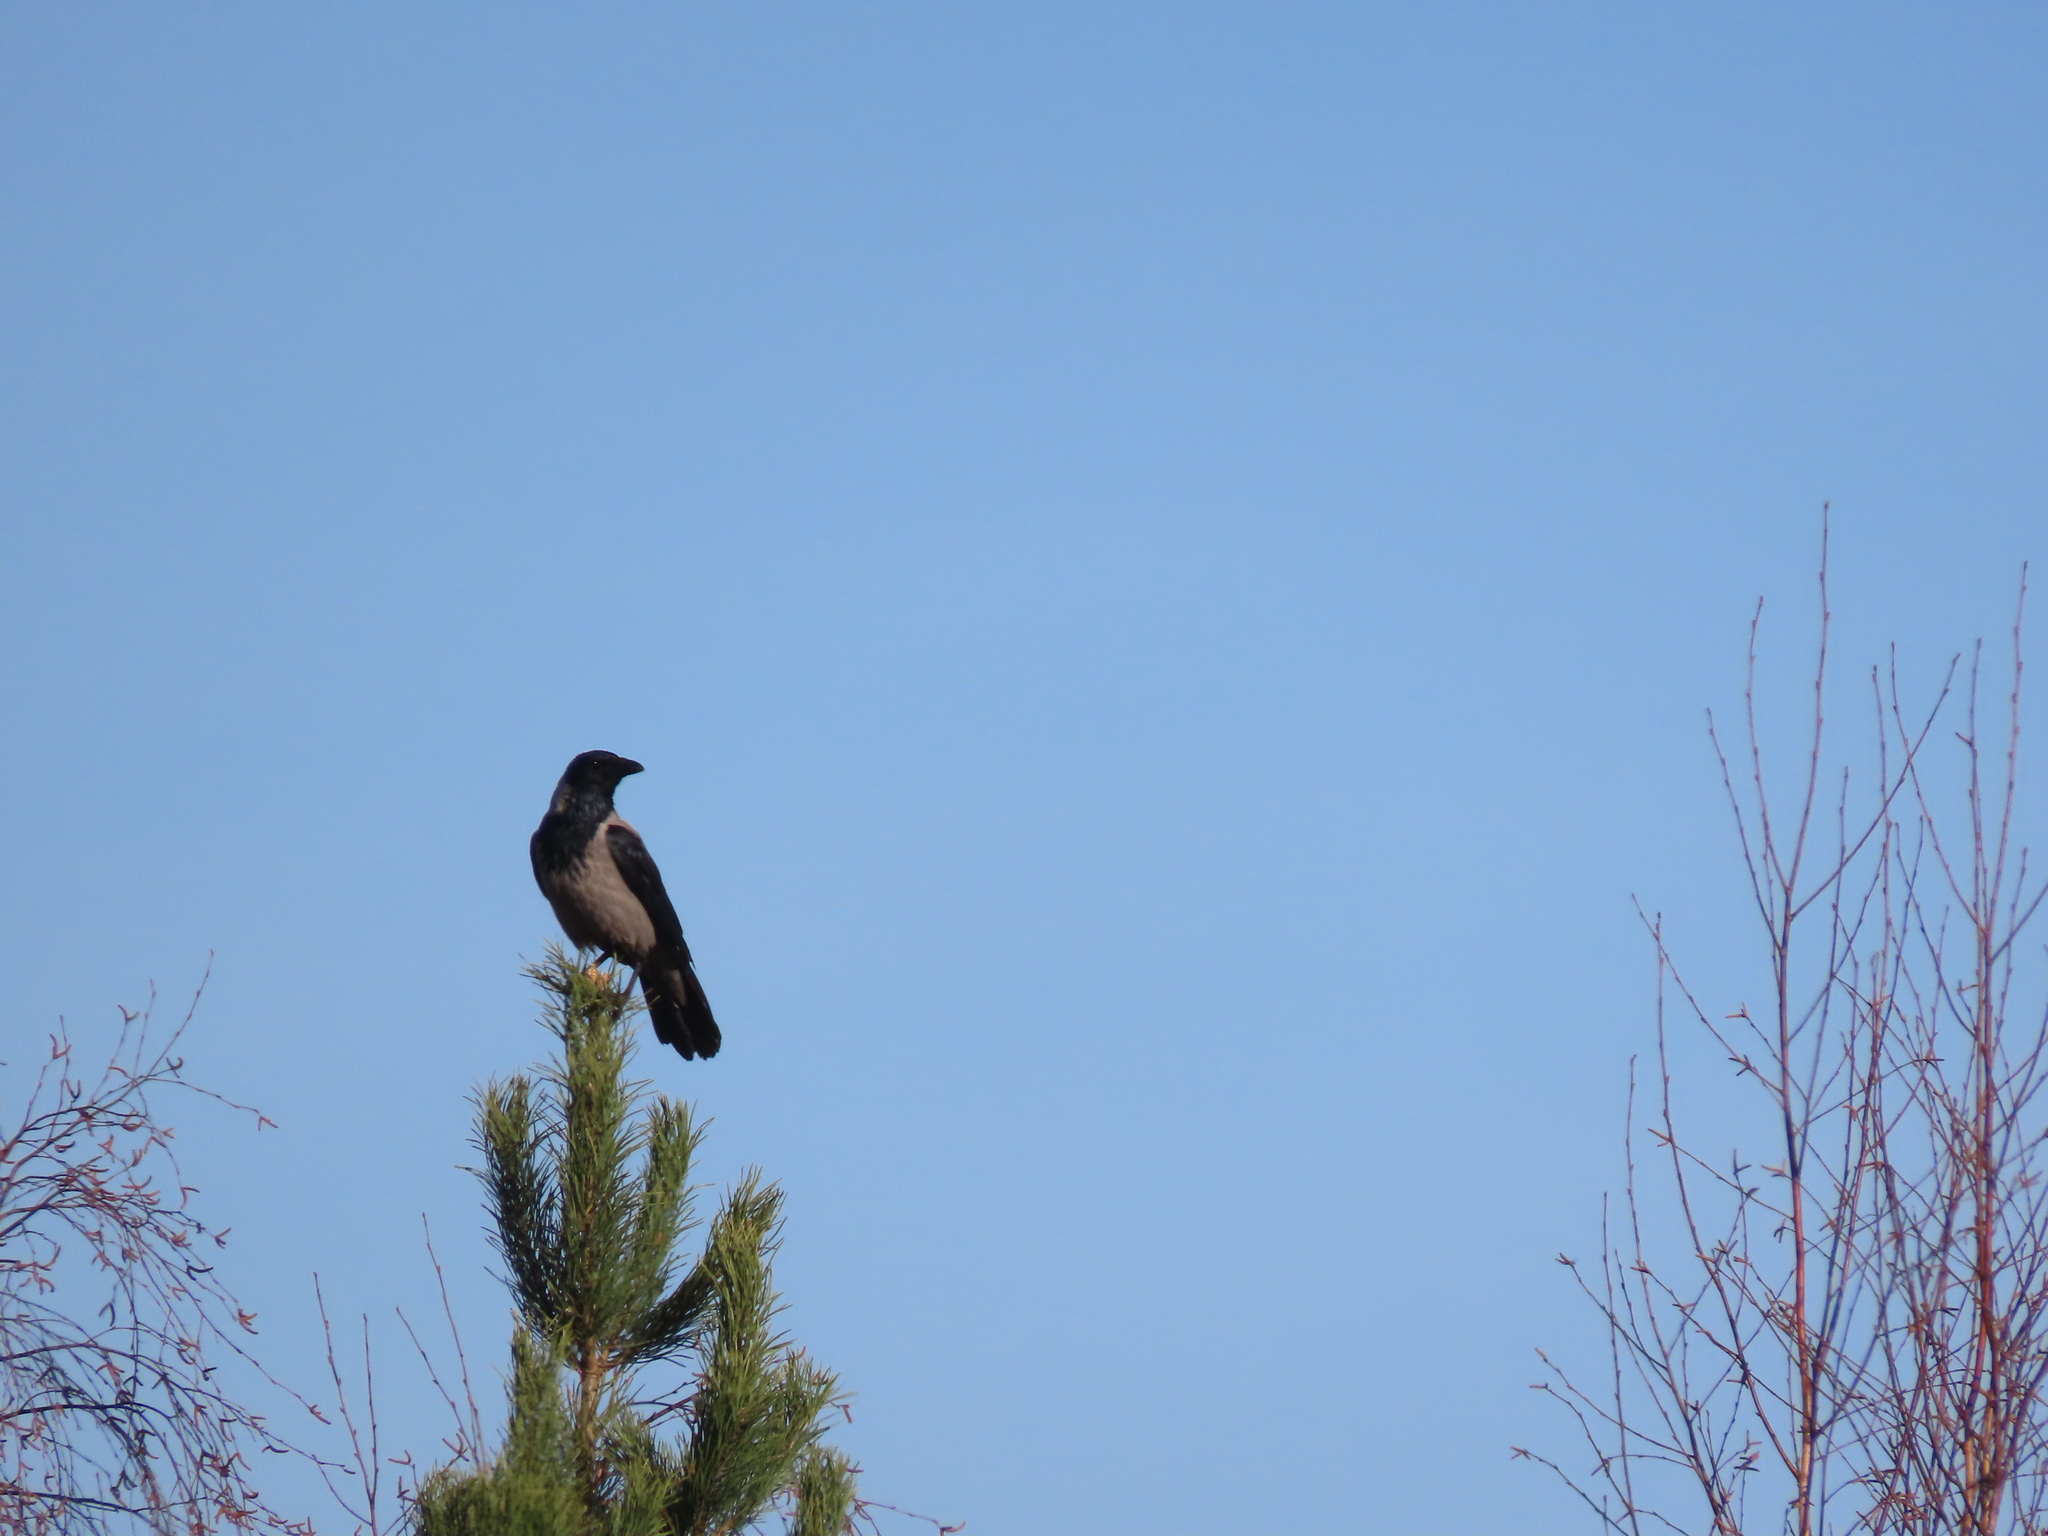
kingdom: Animalia
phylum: Chordata
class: Aves
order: Passeriformes
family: Corvidae
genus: Corvus
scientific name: Corvus cornix
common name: Hooded crow
